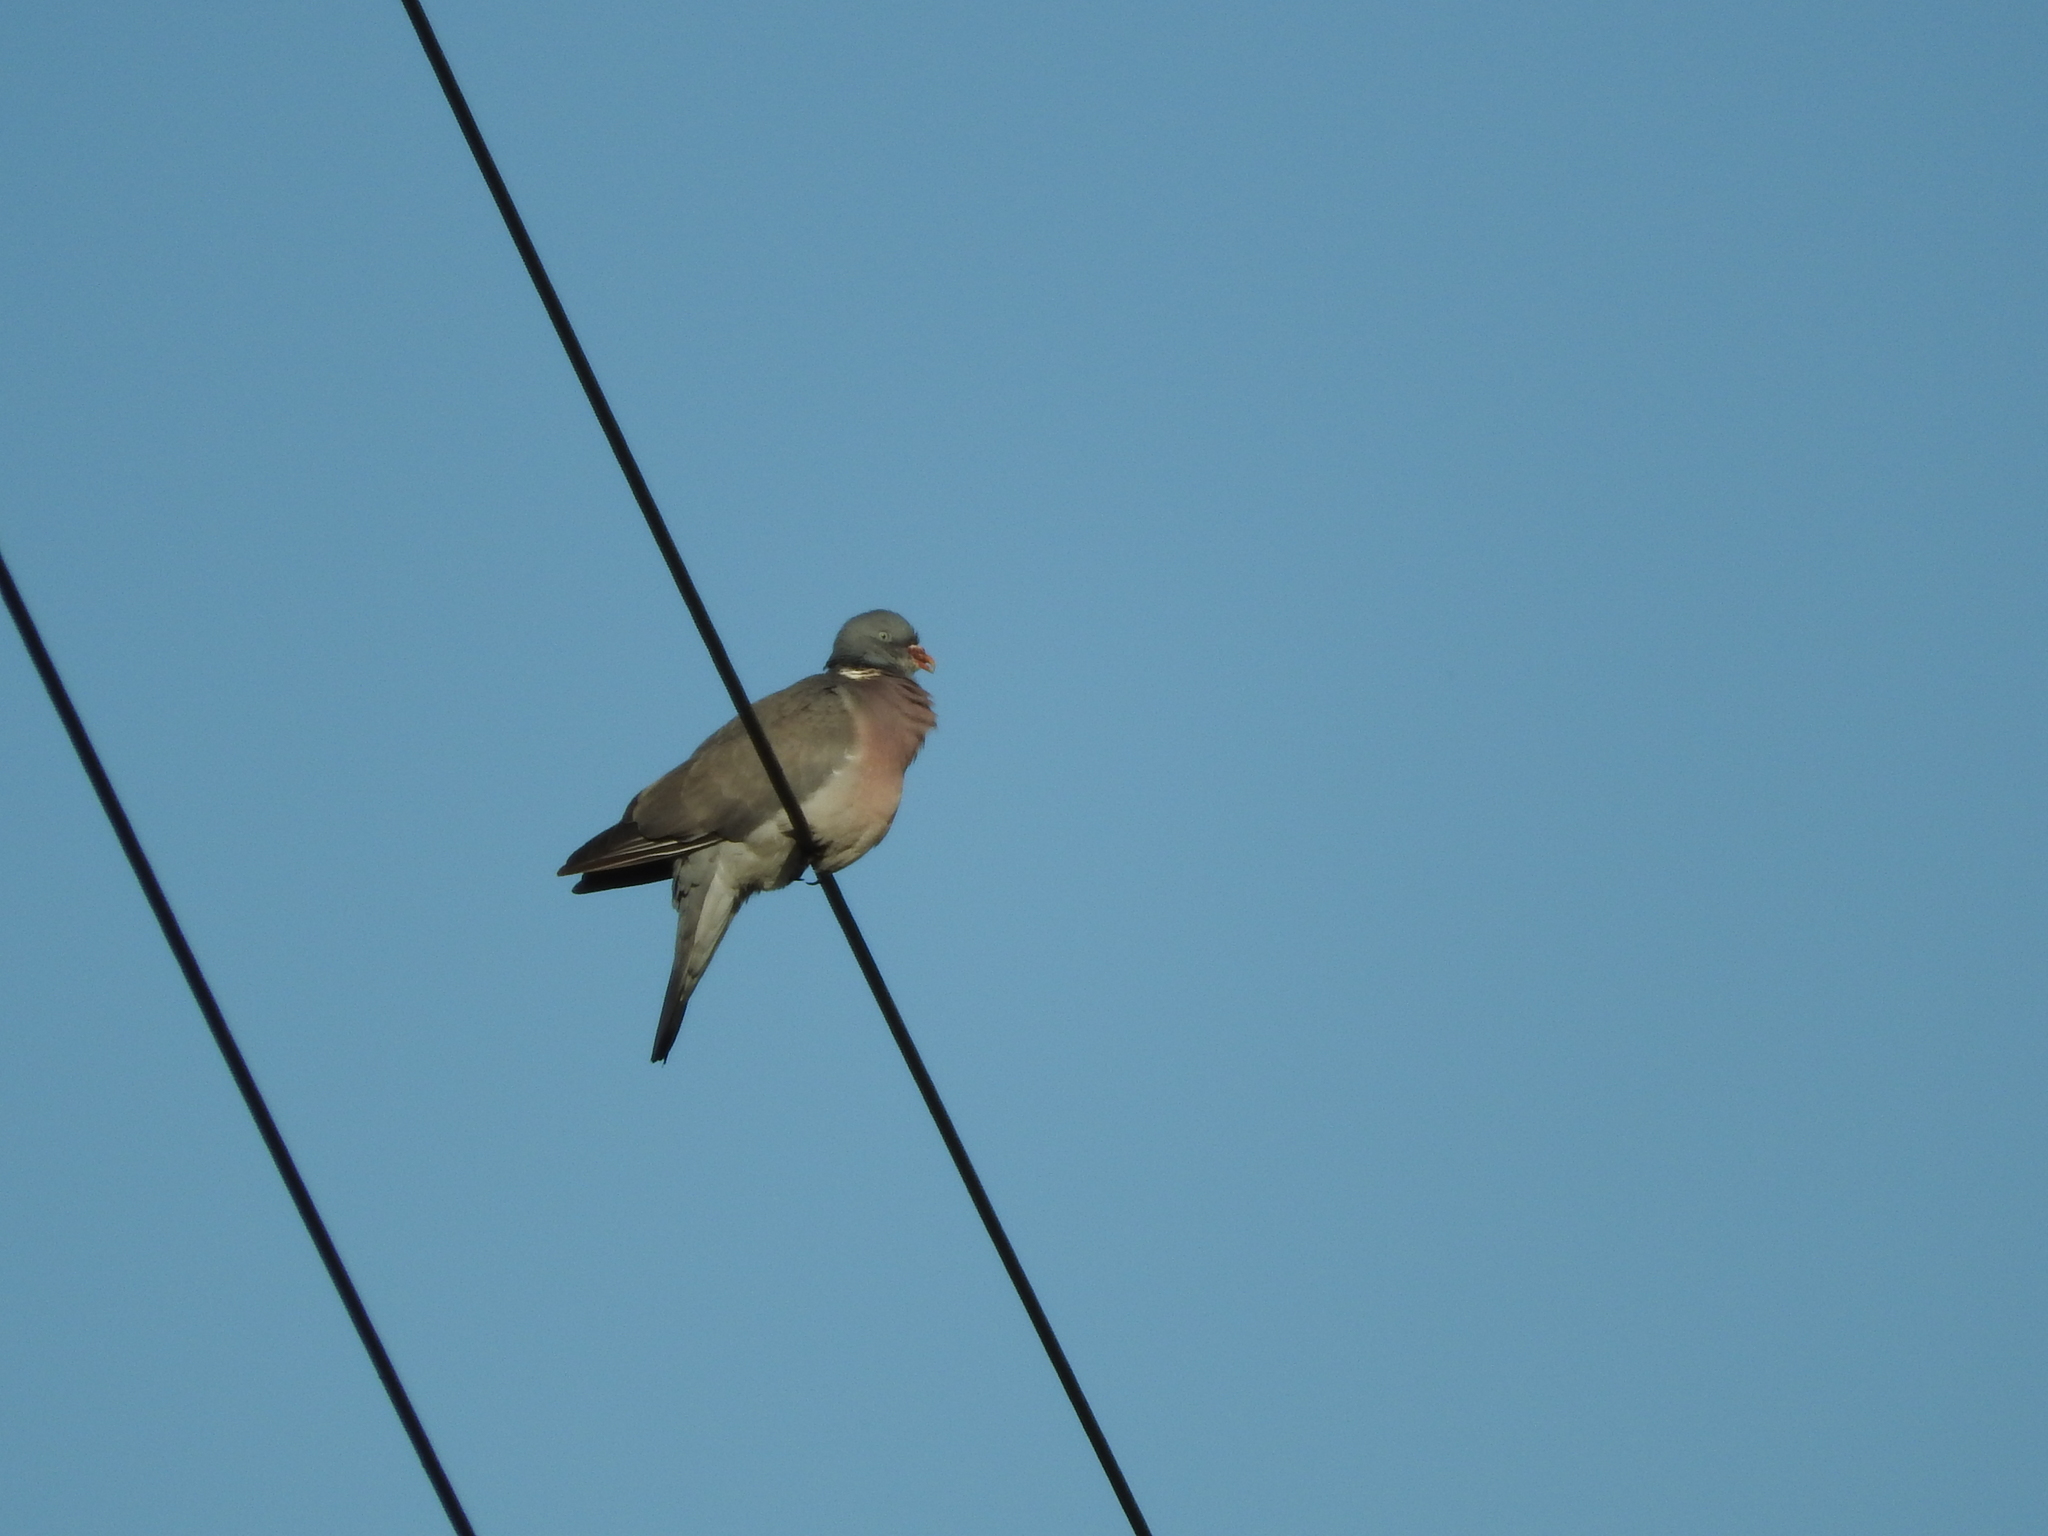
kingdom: Animalia
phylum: Chordata
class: Aves
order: Columbiformes
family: Columbidae
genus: Columba
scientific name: Columba palumbus
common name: Common wood pigeon
